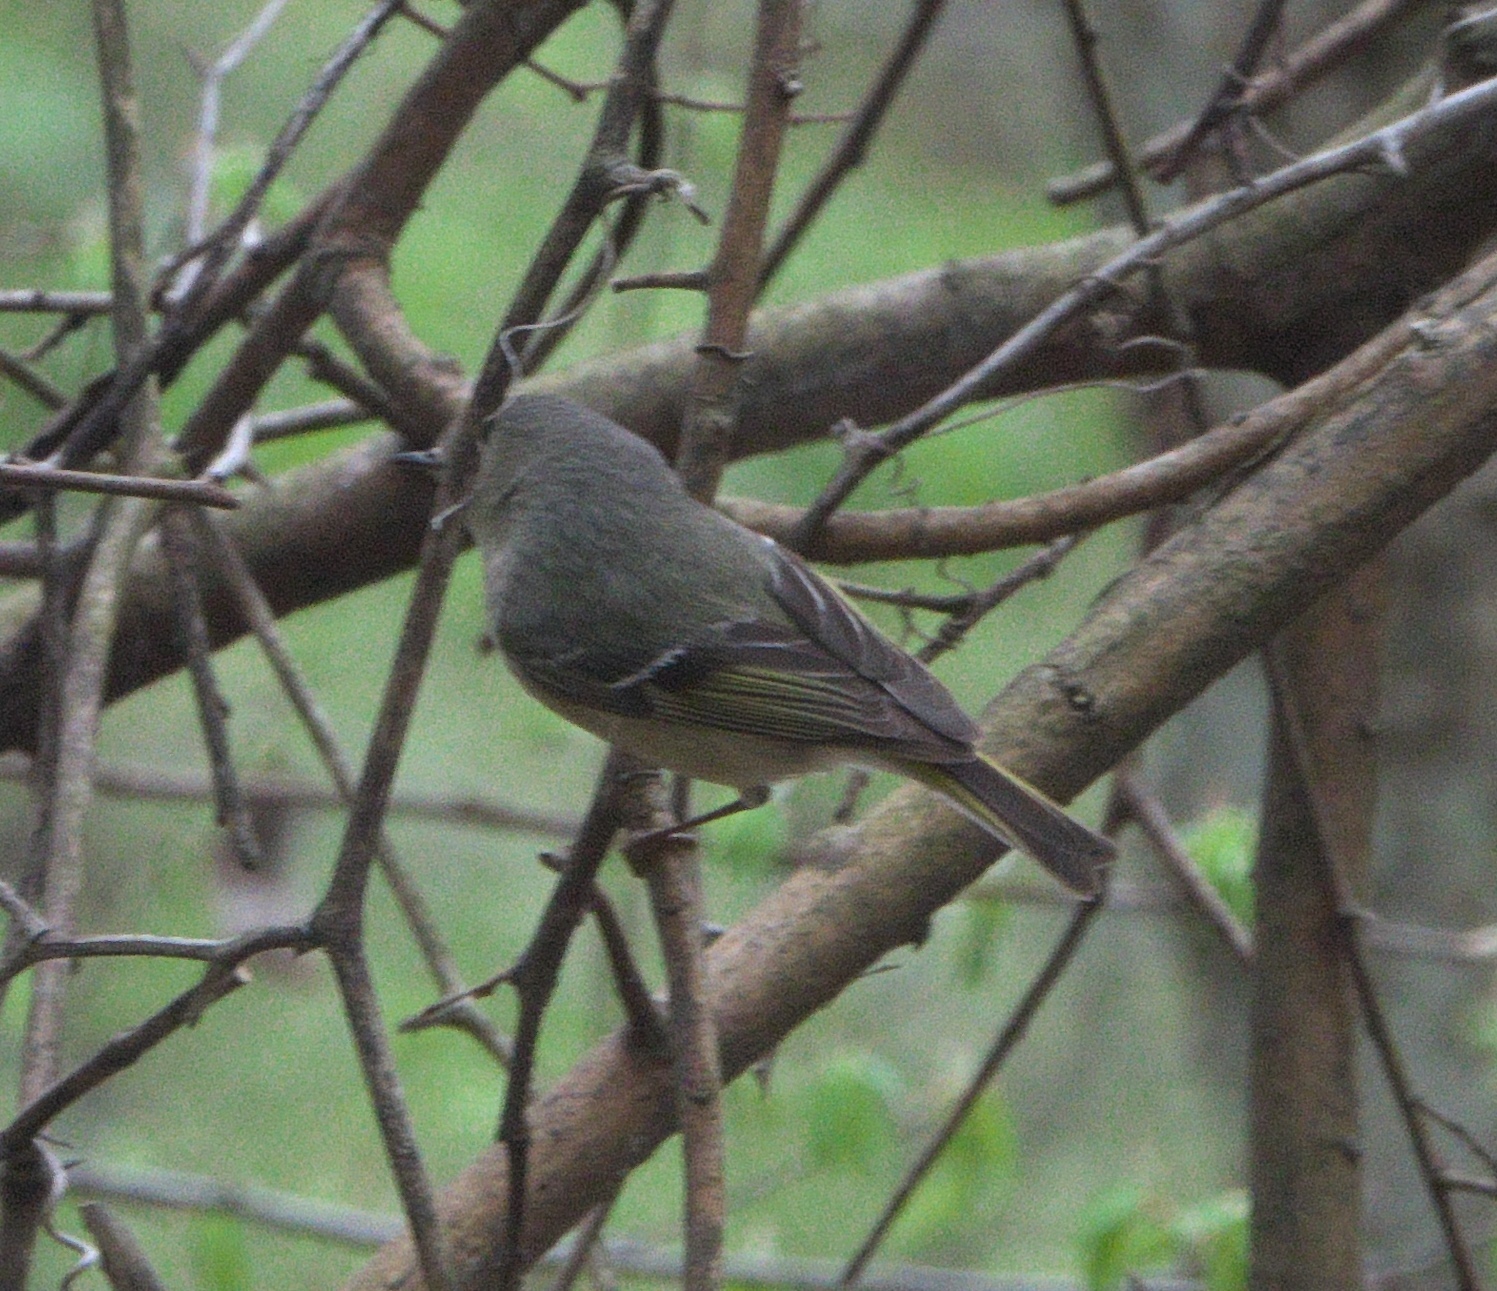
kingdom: Animalia
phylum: Chordata
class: Aves
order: Passeriformes
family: Regulidae
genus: Regulus
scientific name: Regulus calendula
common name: Ruby-crowned kinglet
